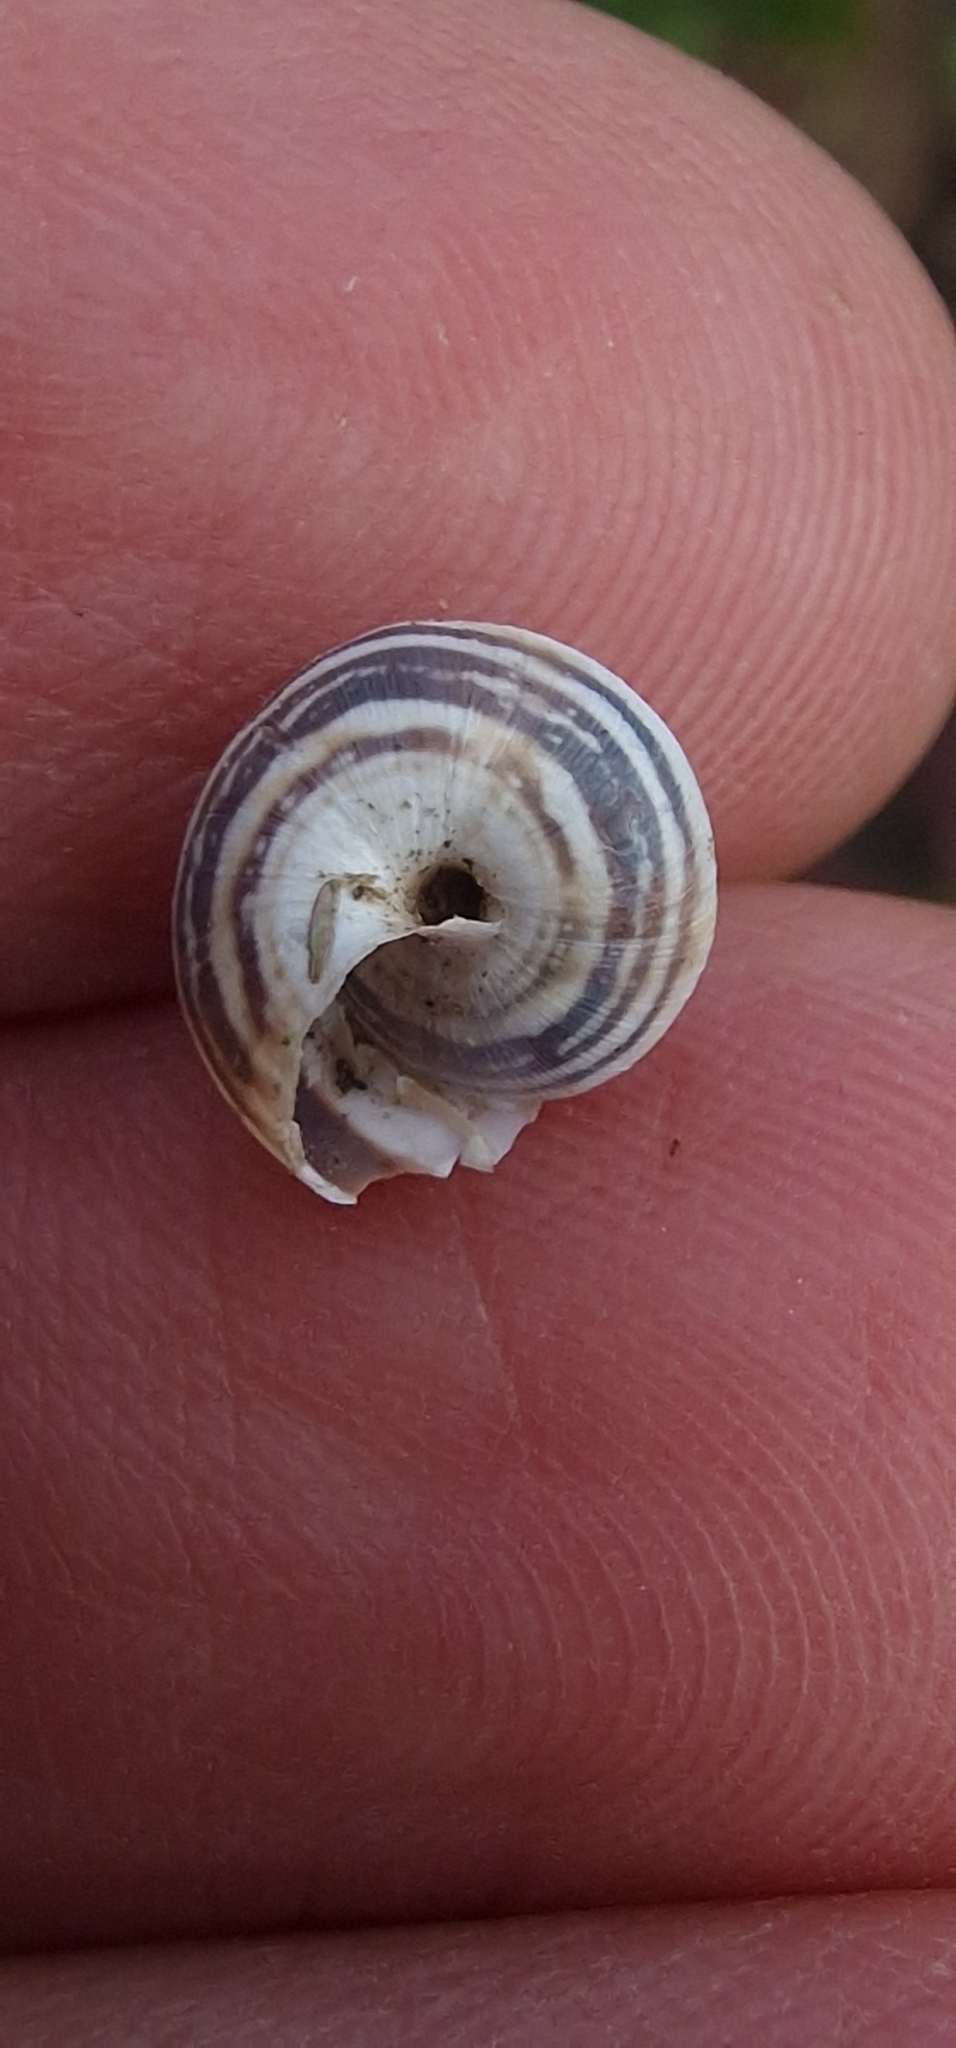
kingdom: Animalia
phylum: Mollusca
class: Gastropoda
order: Stylommatophora
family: Geomitridae
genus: Cernuella
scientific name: Cernuella virgata
